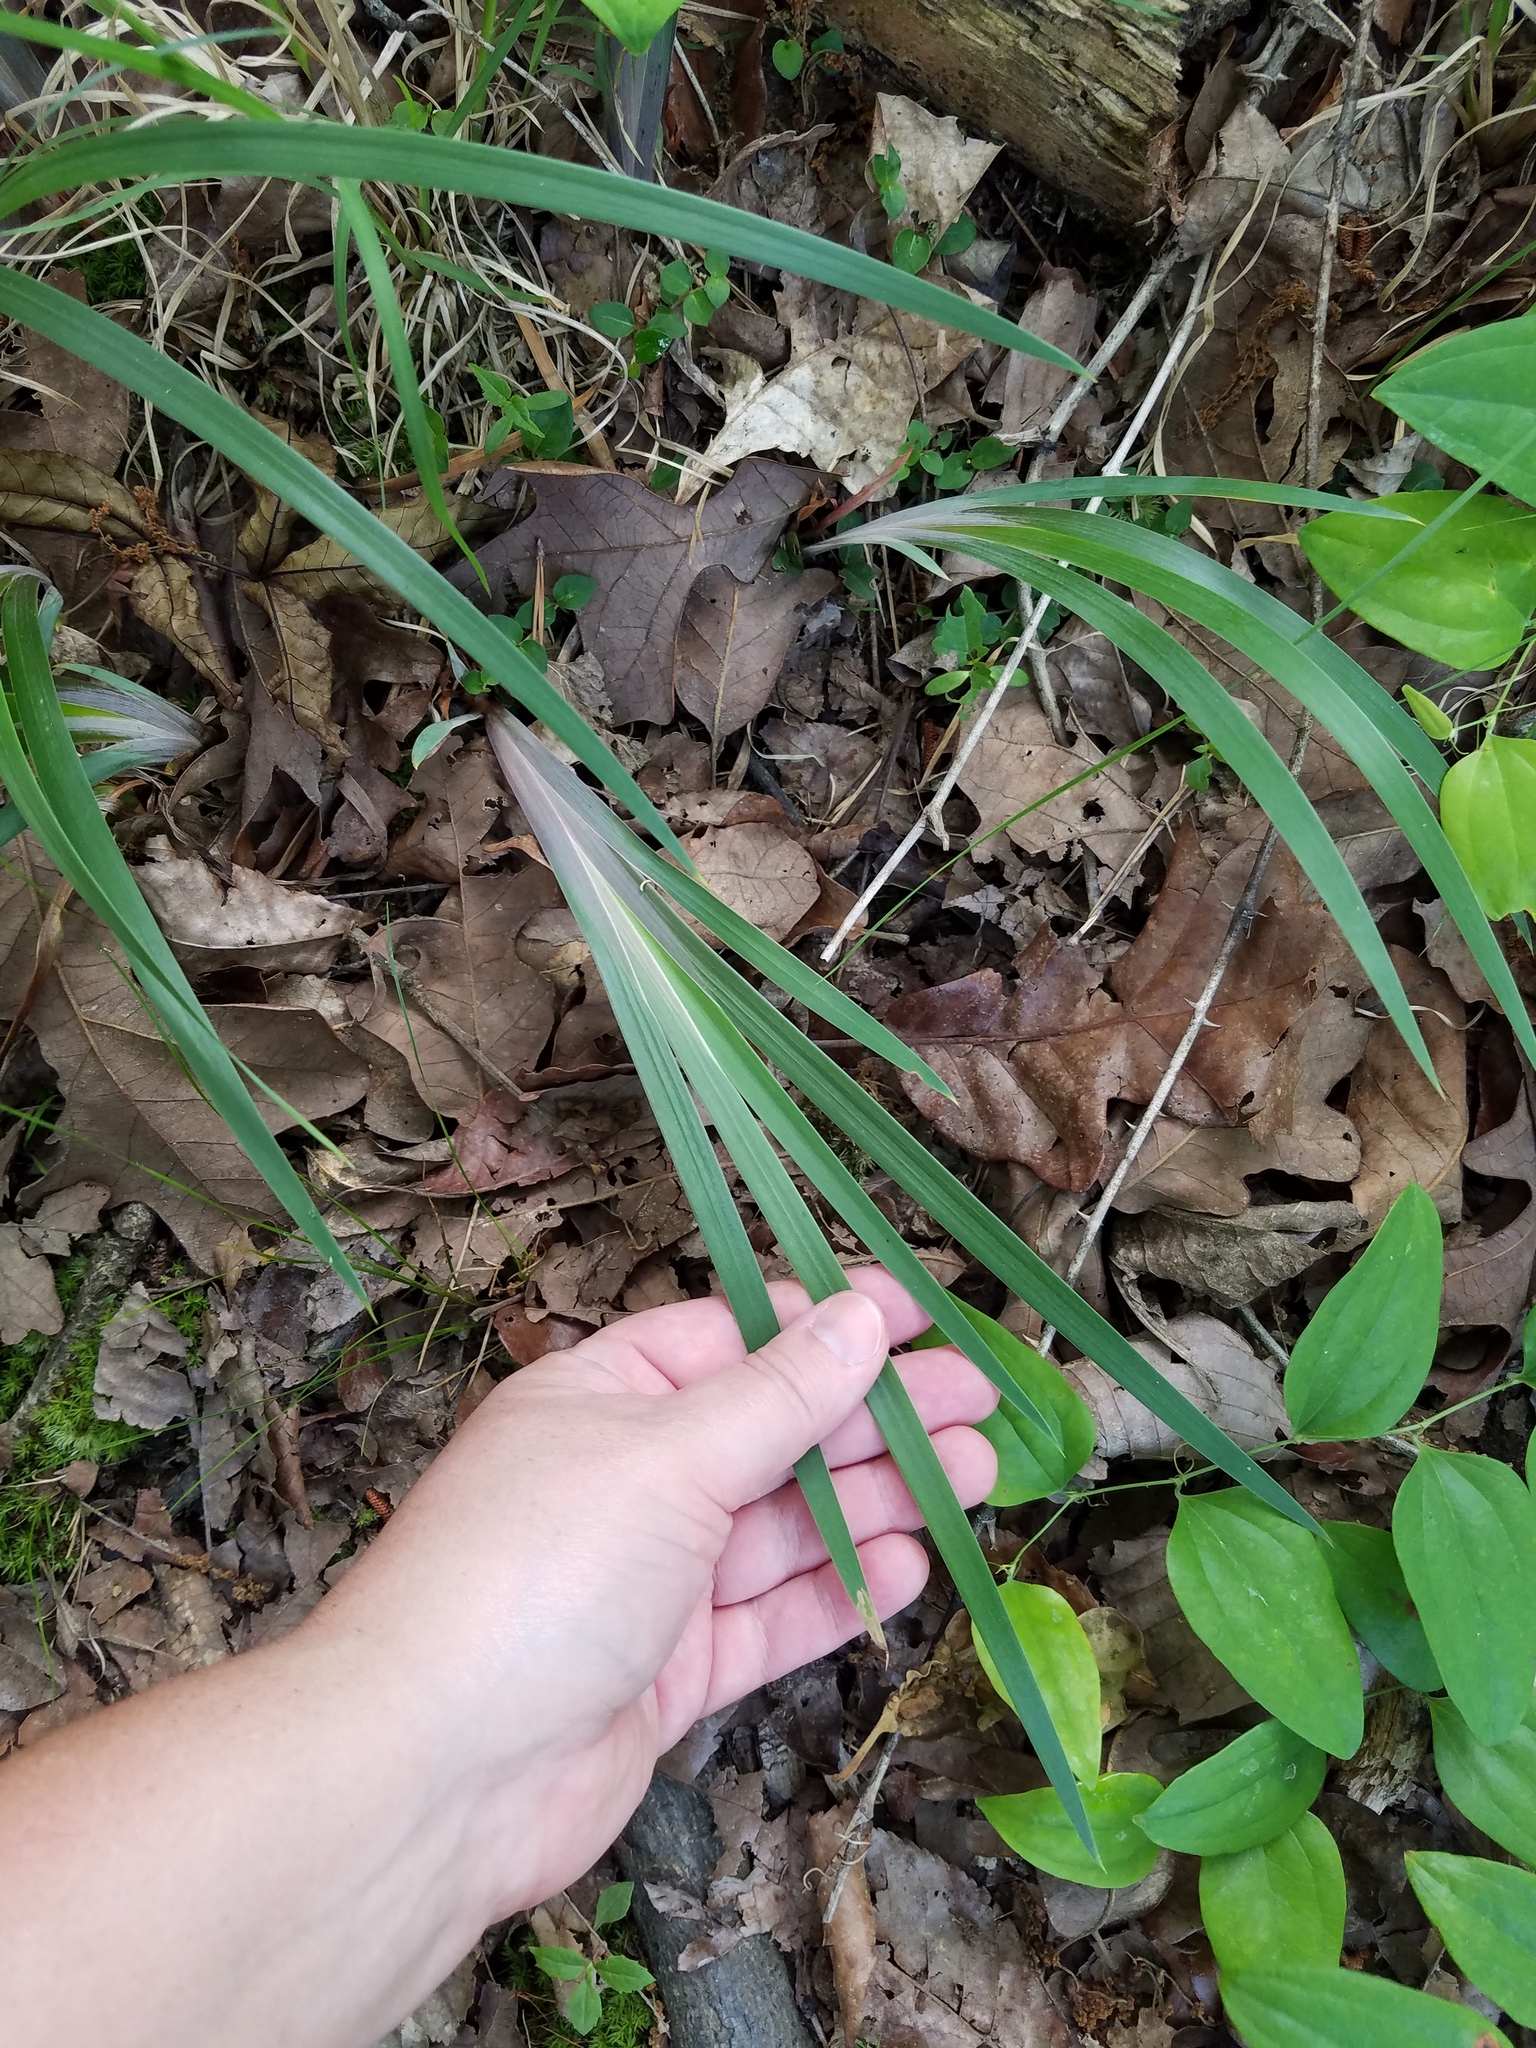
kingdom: Plantae
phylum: Tracheophyta
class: Liliopsida
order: Asparagales
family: Iridaceae
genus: Iris
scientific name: Iris verna
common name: Dwarf iris
